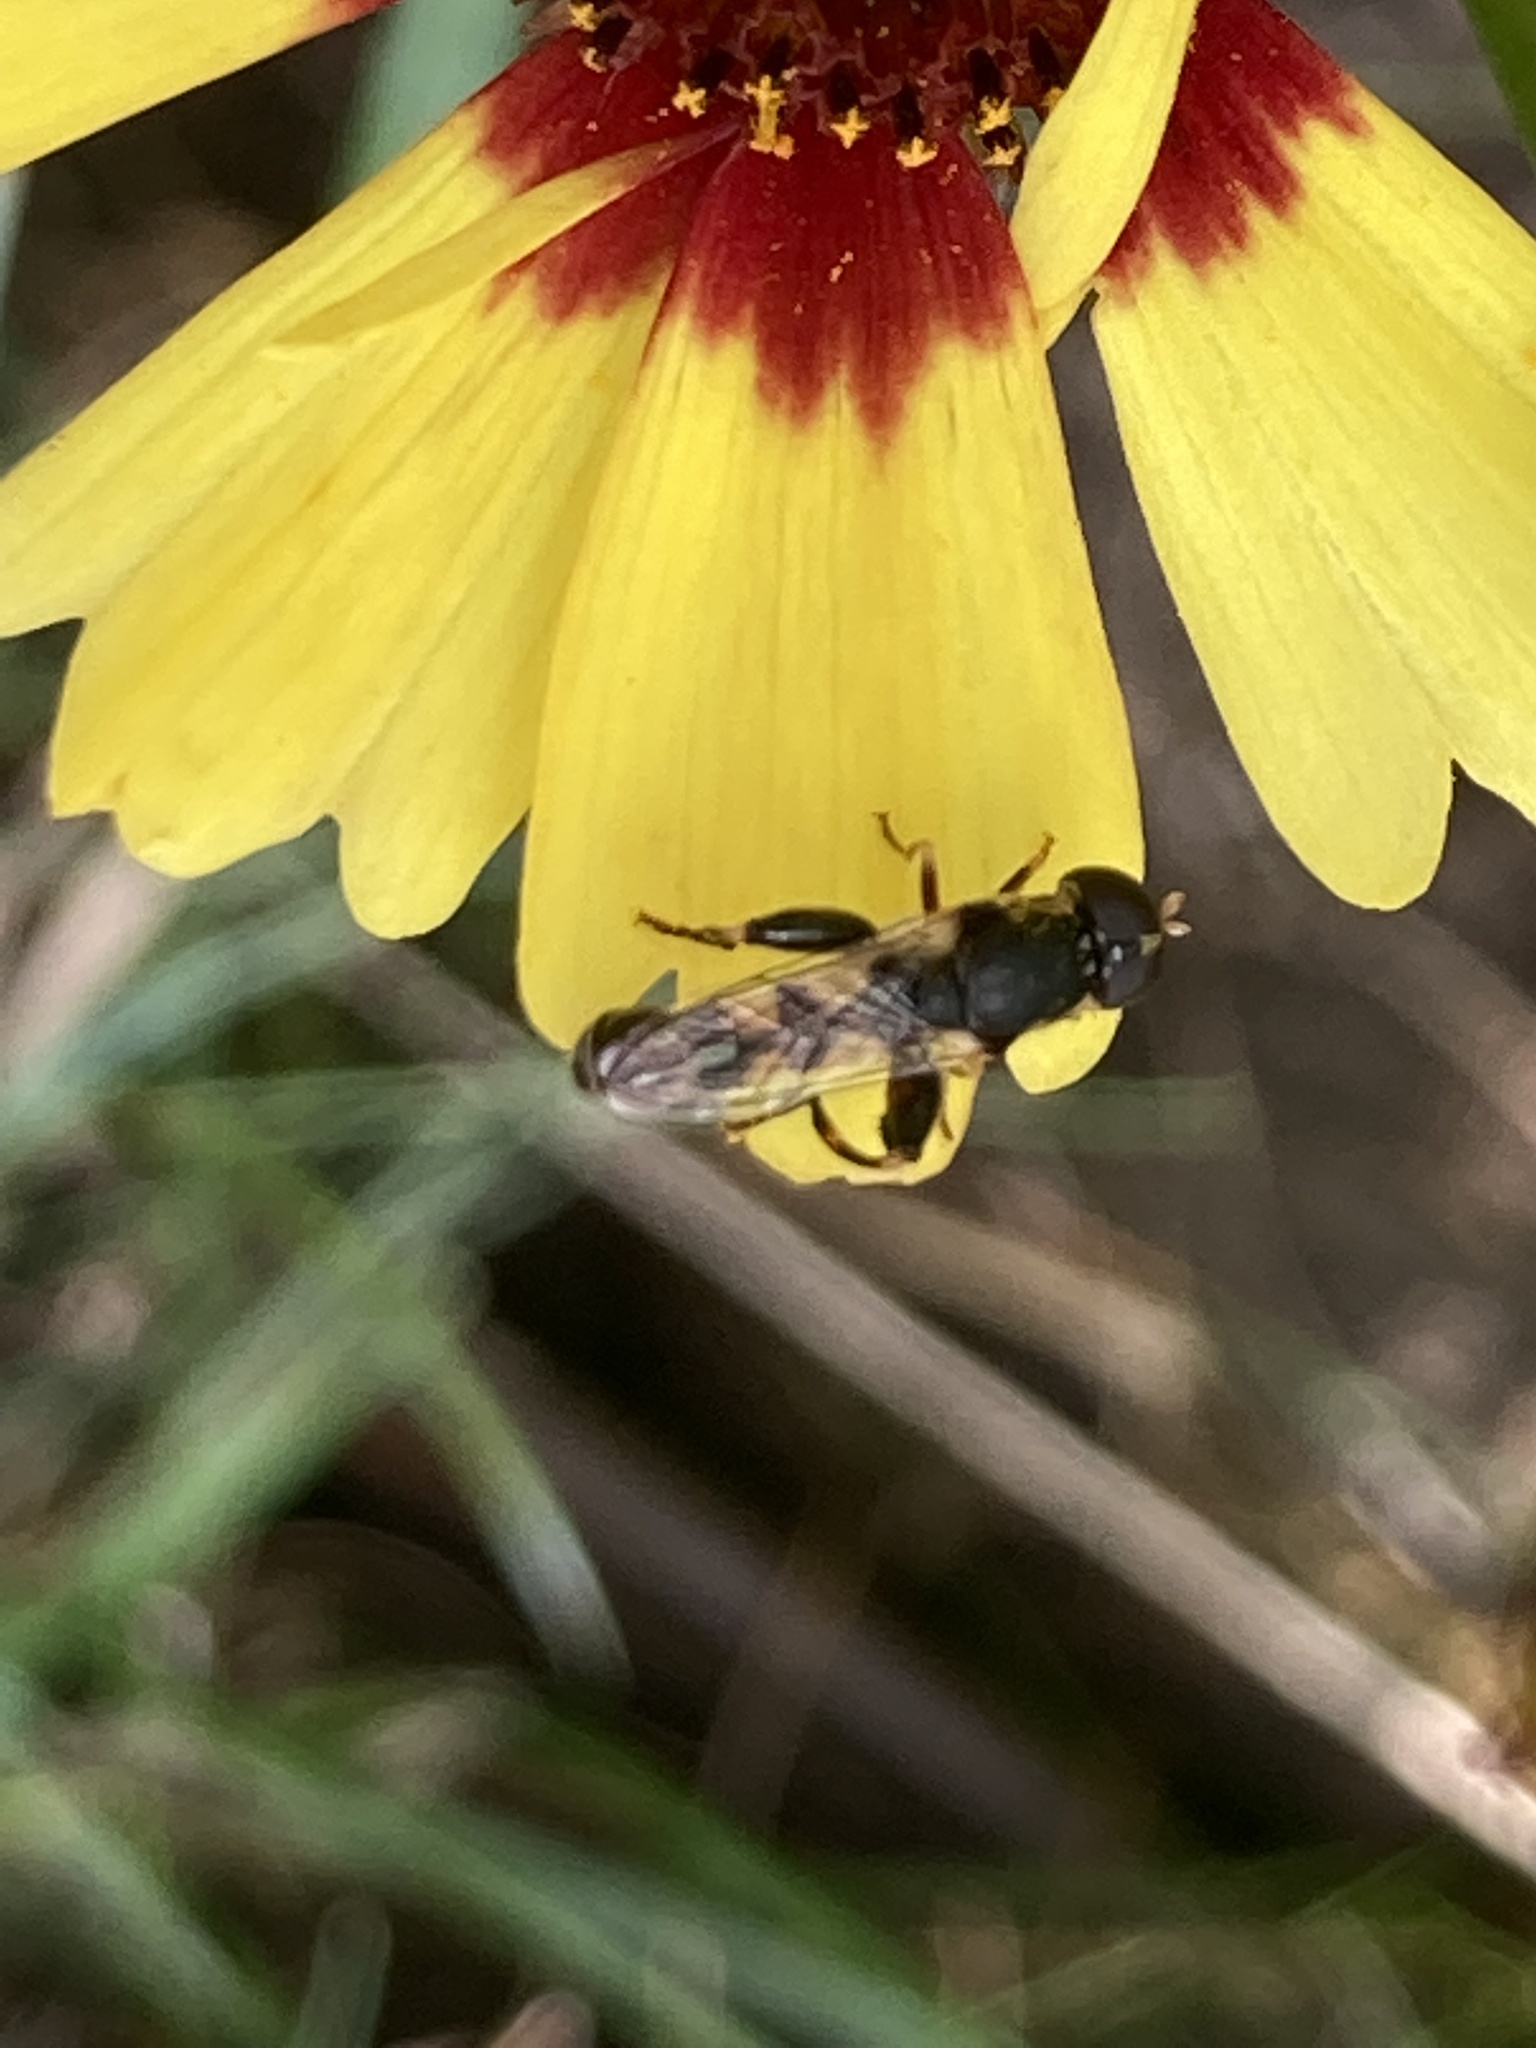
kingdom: Animalia
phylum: Arthropoda
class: Insecta
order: Diptera
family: Syrphidae
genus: Syritta
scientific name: Syritta pipiens
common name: Hover fly
